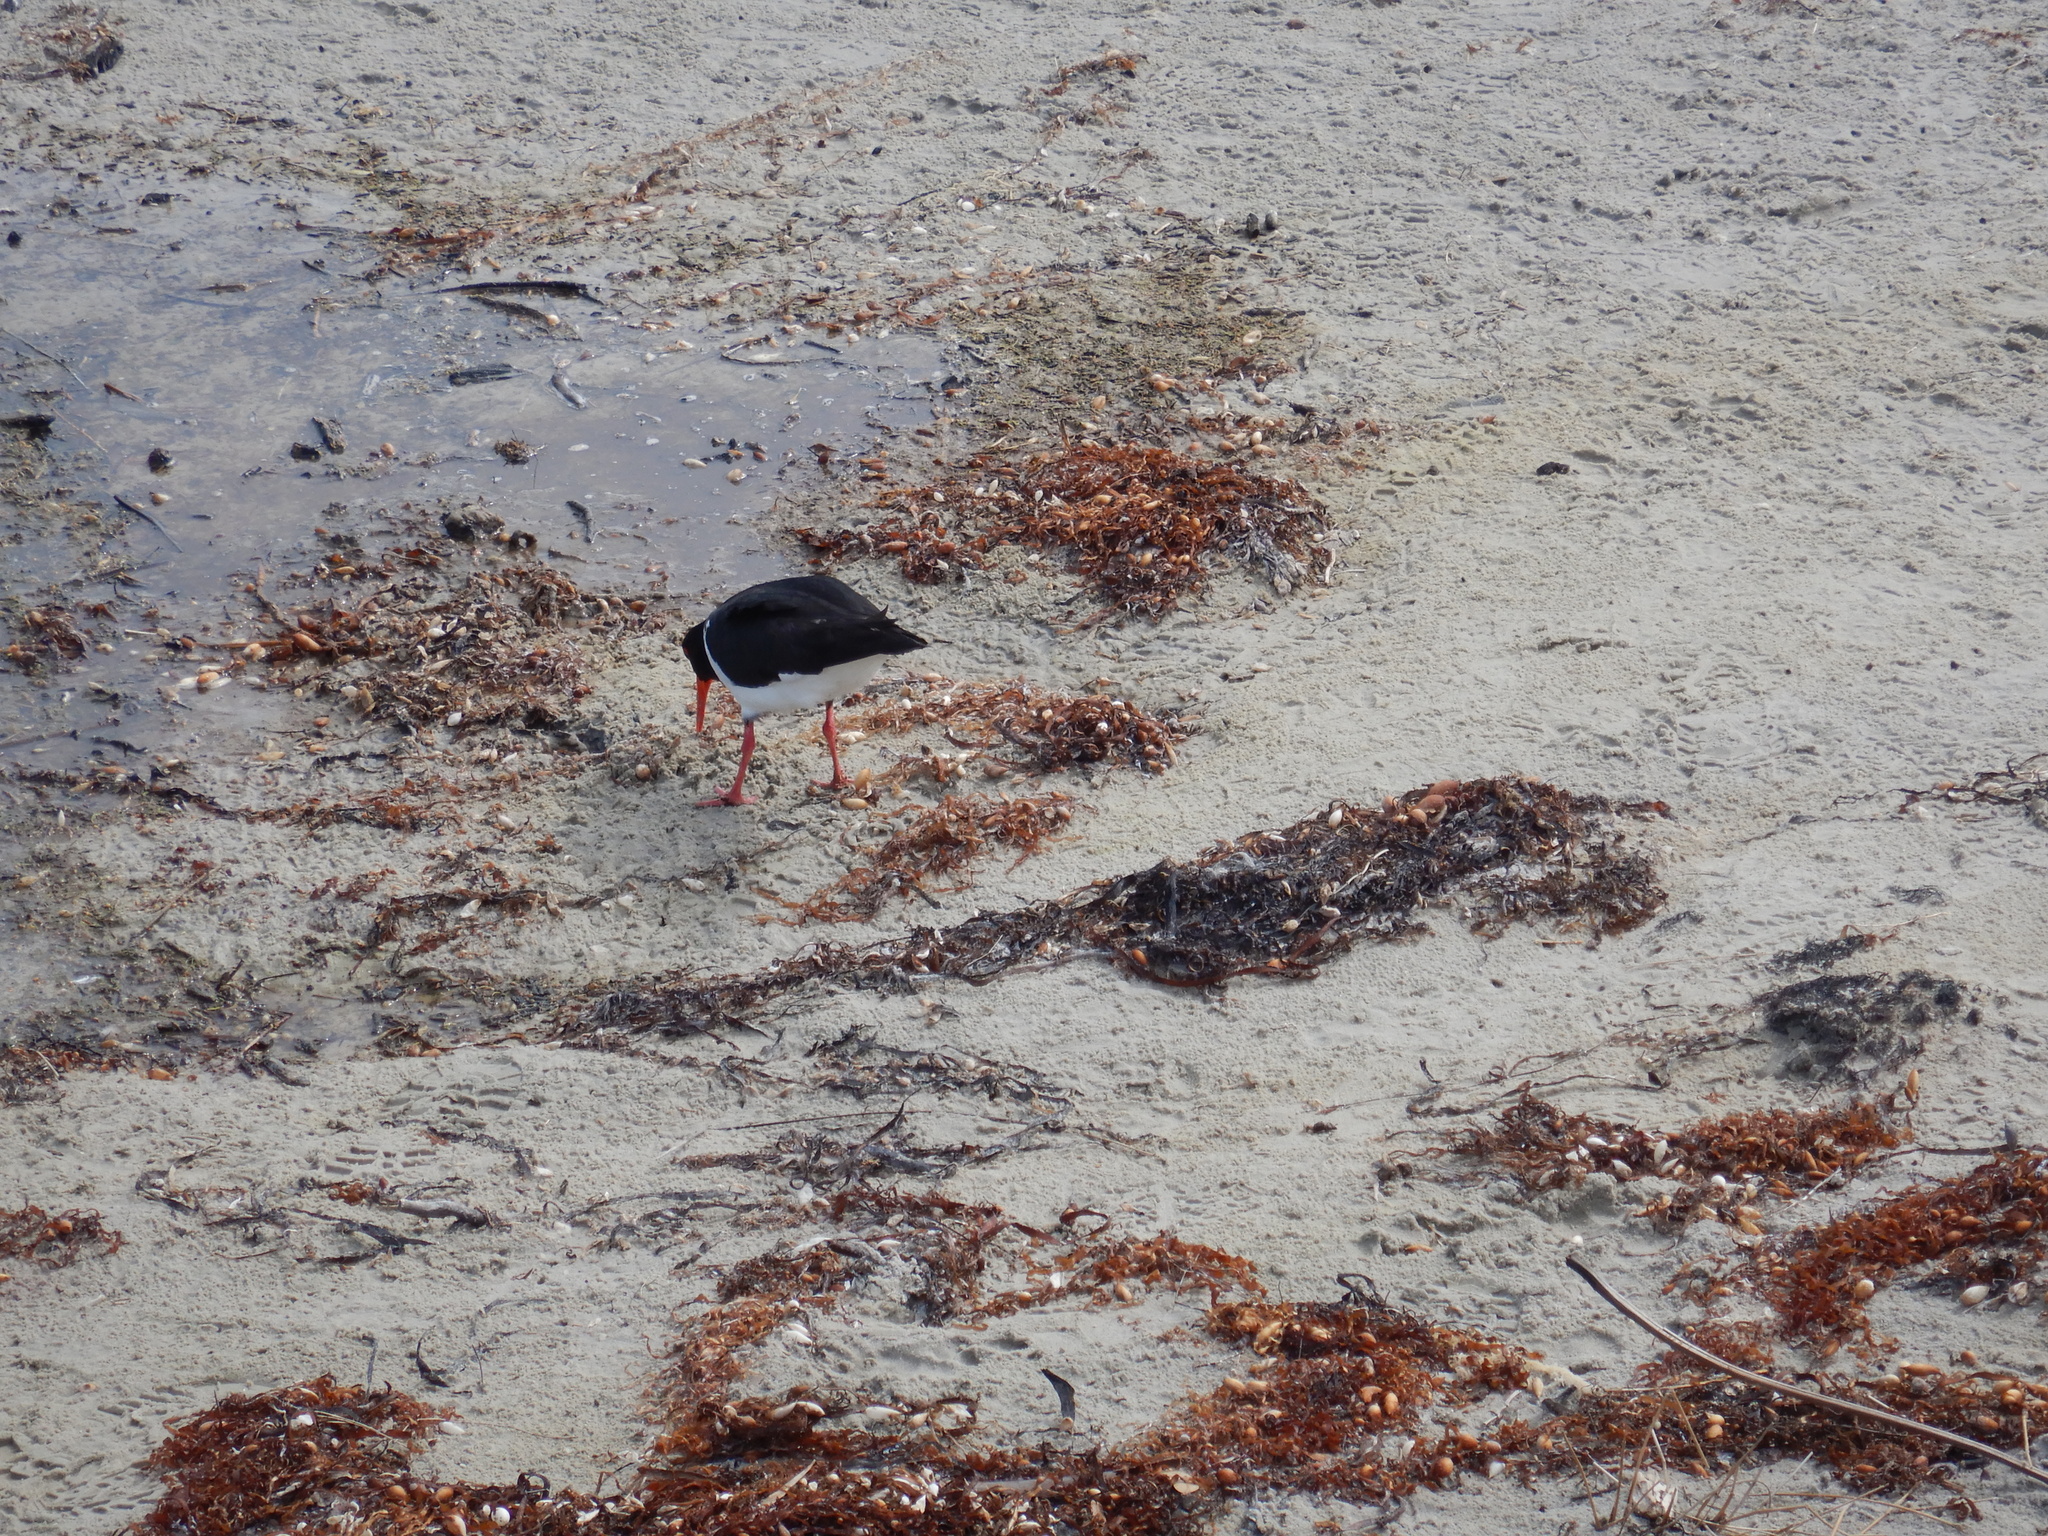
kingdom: Animalia
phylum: Chordata
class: Aves
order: Charadriiformes
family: Haematopodidae
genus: Haematopus
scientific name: Haematopus longirostris
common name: Pied oystercatcher
